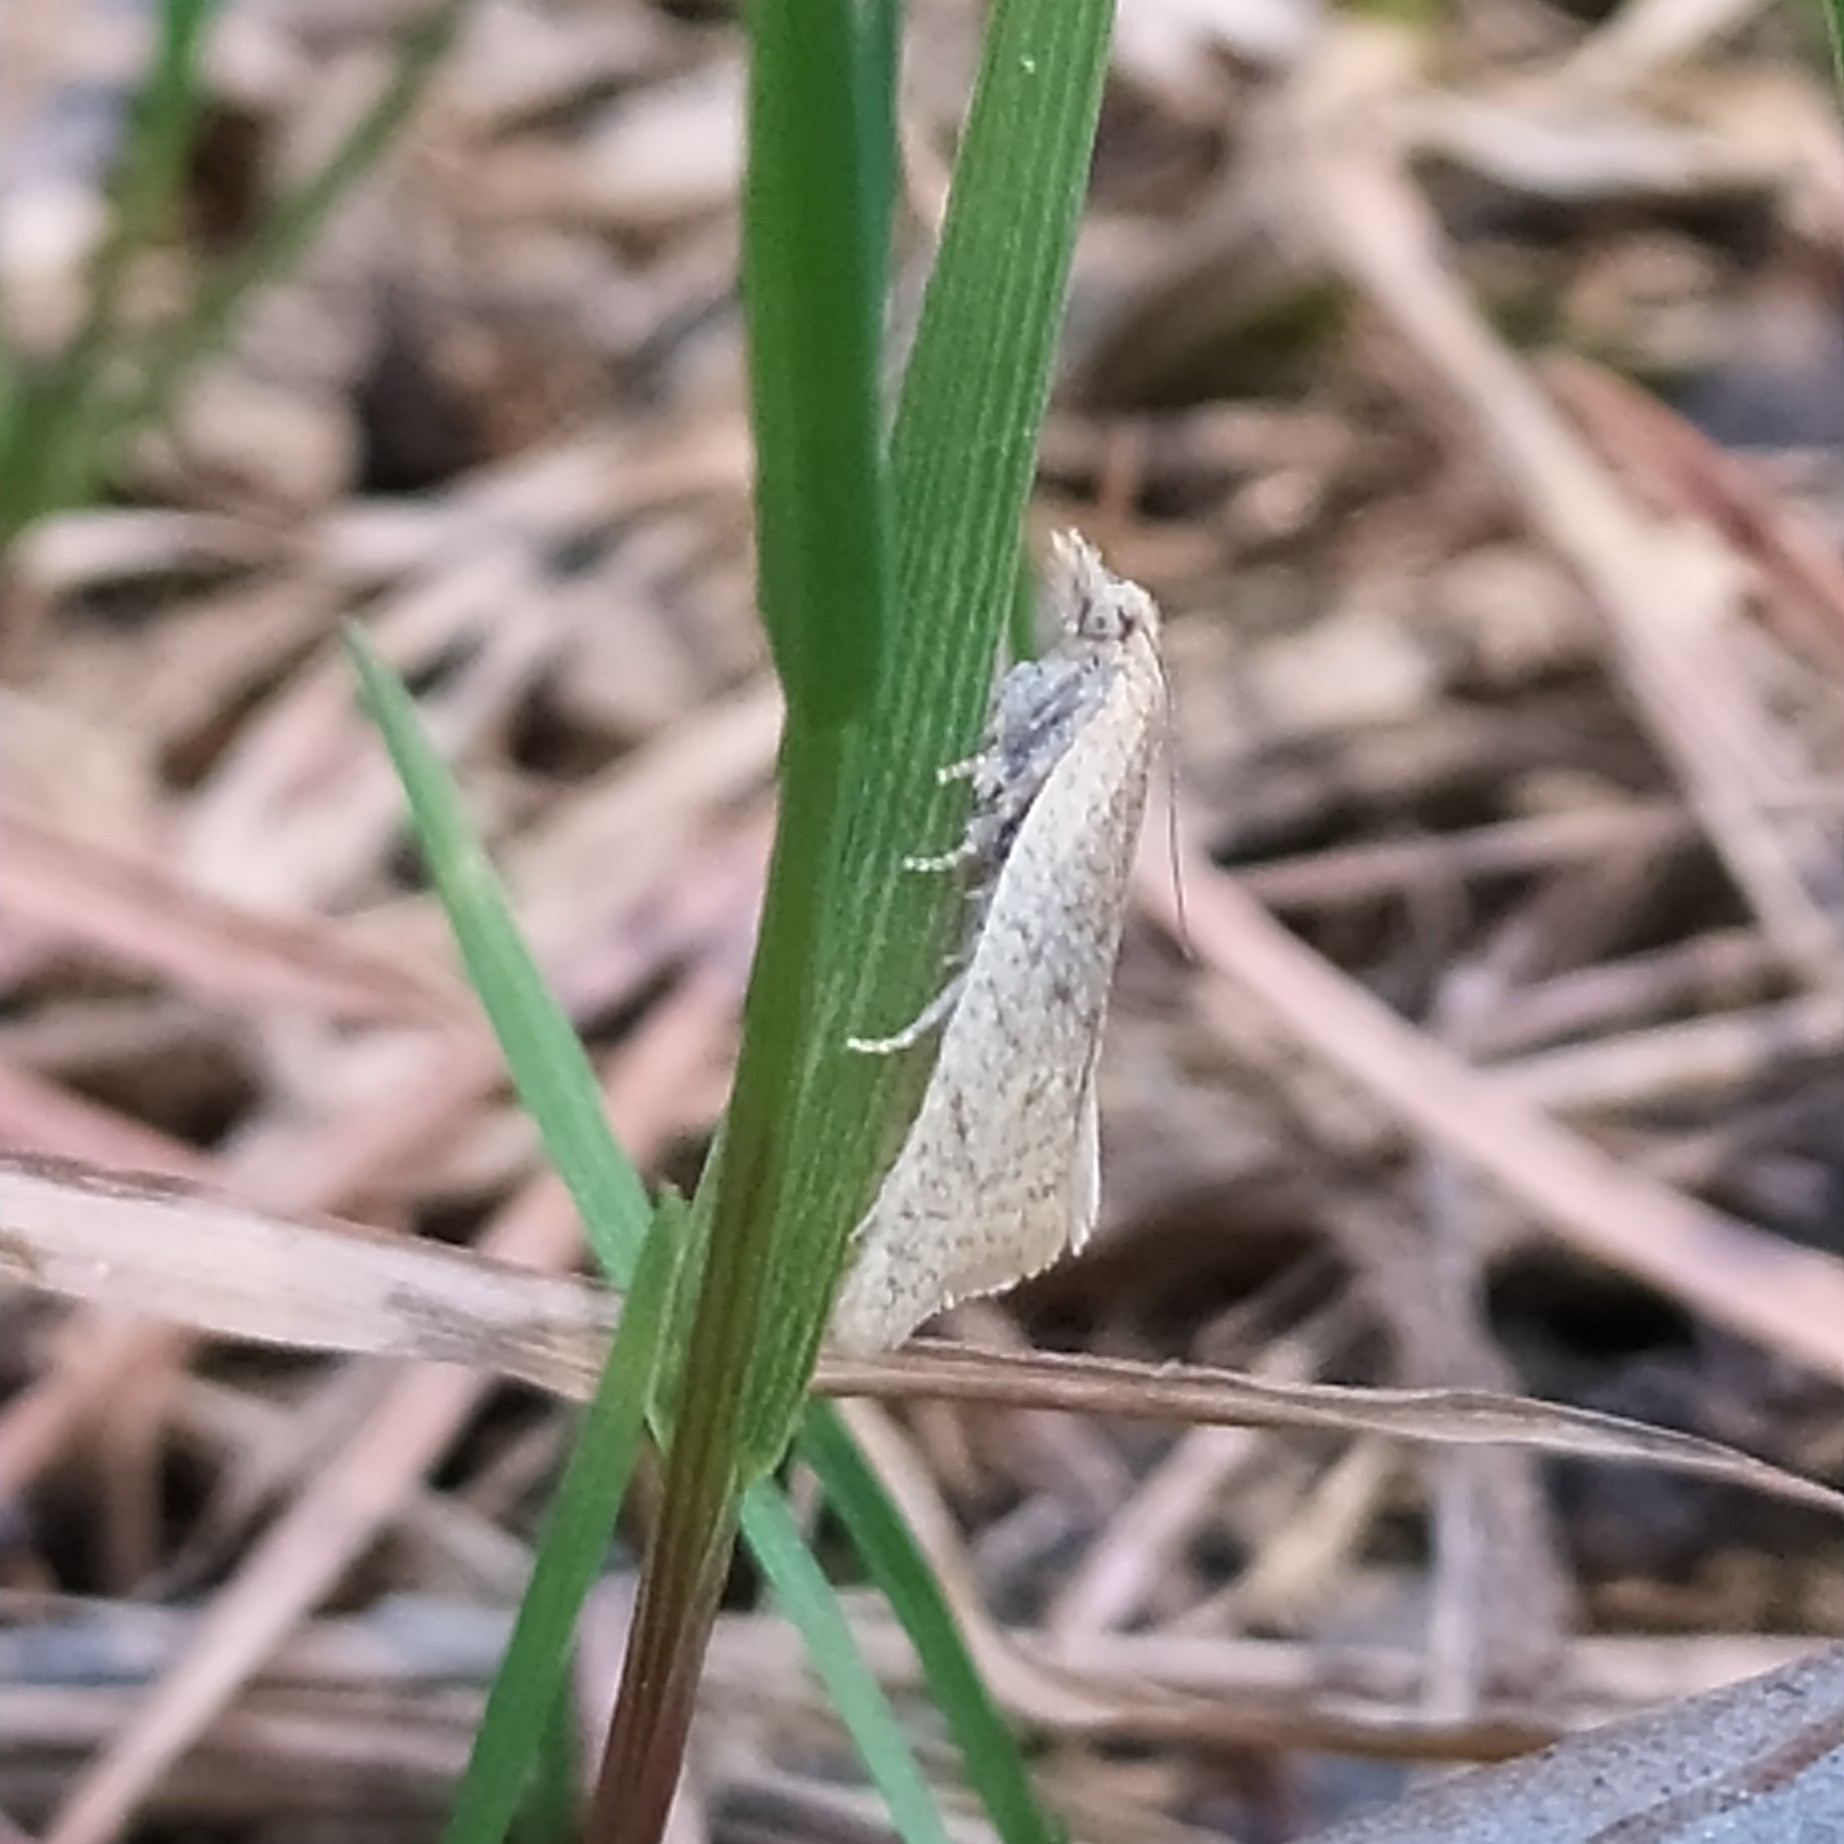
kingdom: Animalia
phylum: Arthropoda
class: Insecta
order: Lepidoptera
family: Tortricidae
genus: Clepsis
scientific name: Clepsis senecionana
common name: Obscure tortrix
